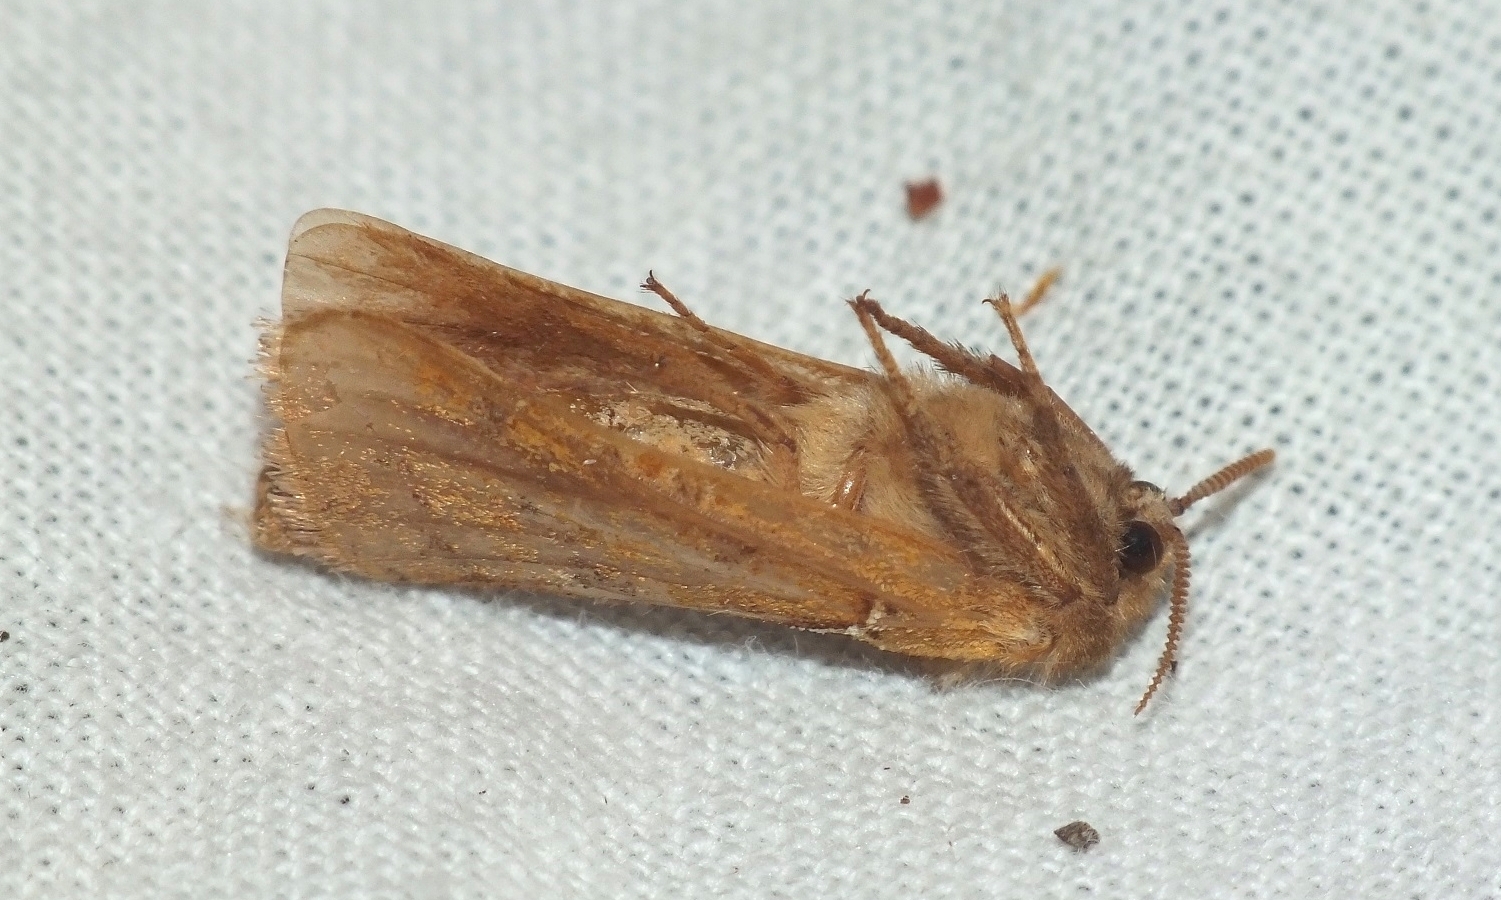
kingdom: Animalia
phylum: Arthropoda
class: Insecta
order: Lepidoptera
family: Hepialidae
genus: Triodia
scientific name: Triodia sylvina
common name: Orange swift
